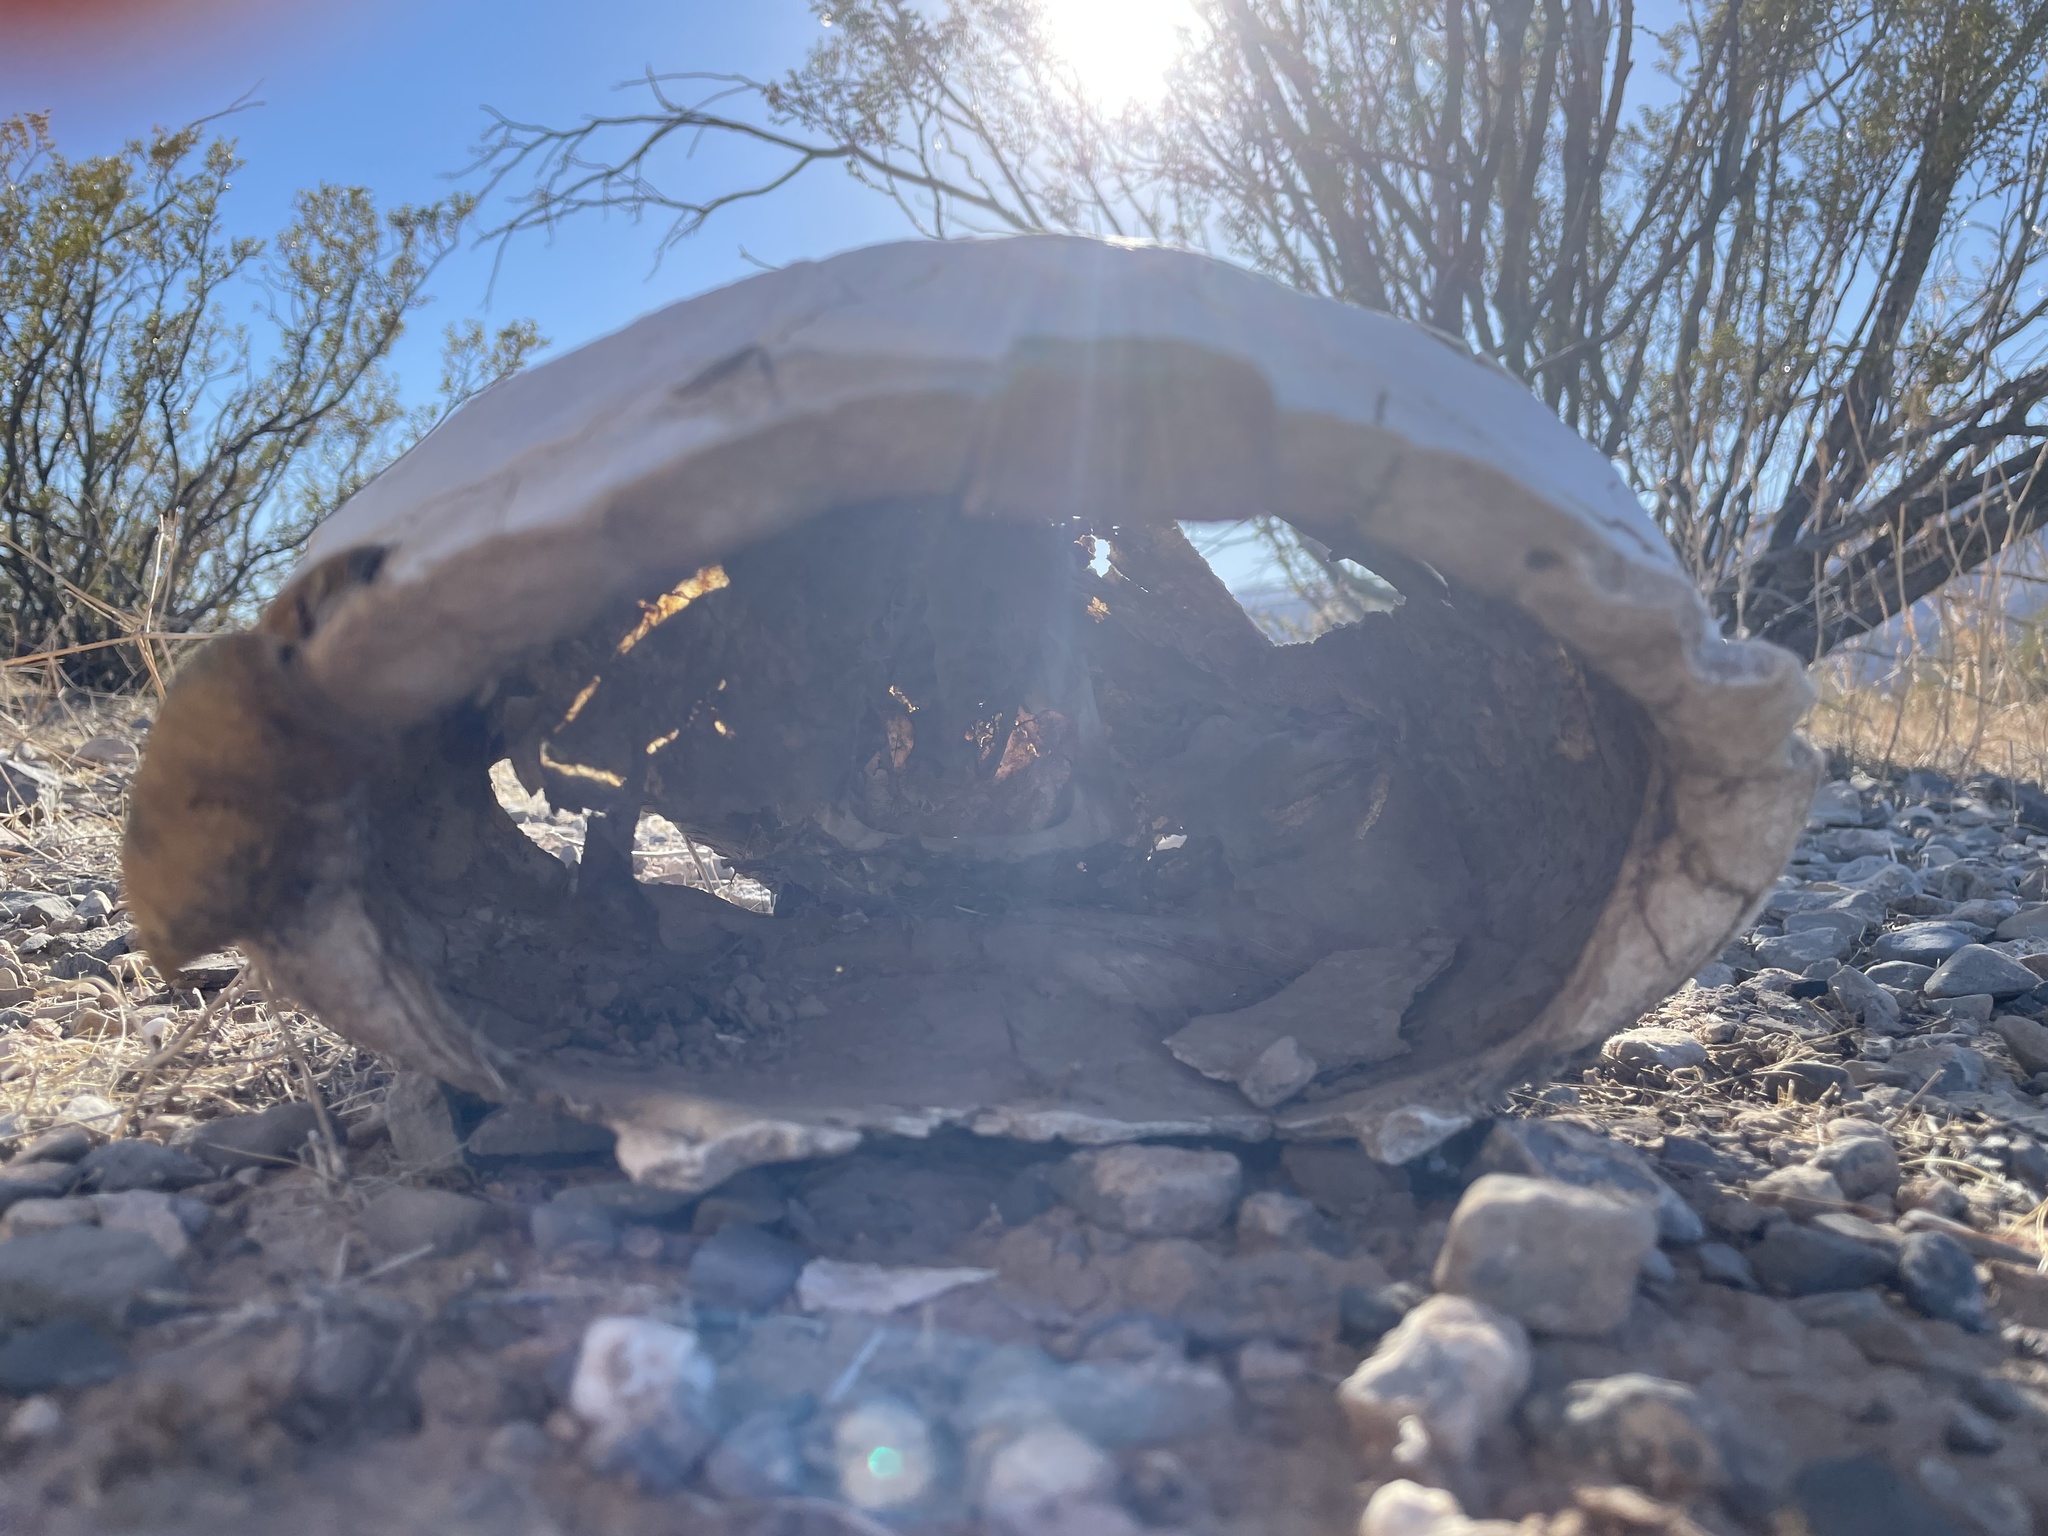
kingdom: Animalia
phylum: Chordata
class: Testudines
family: Testudinidae
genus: Gopherus
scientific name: Gopherus agassizii
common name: Mojave desert tortoise
